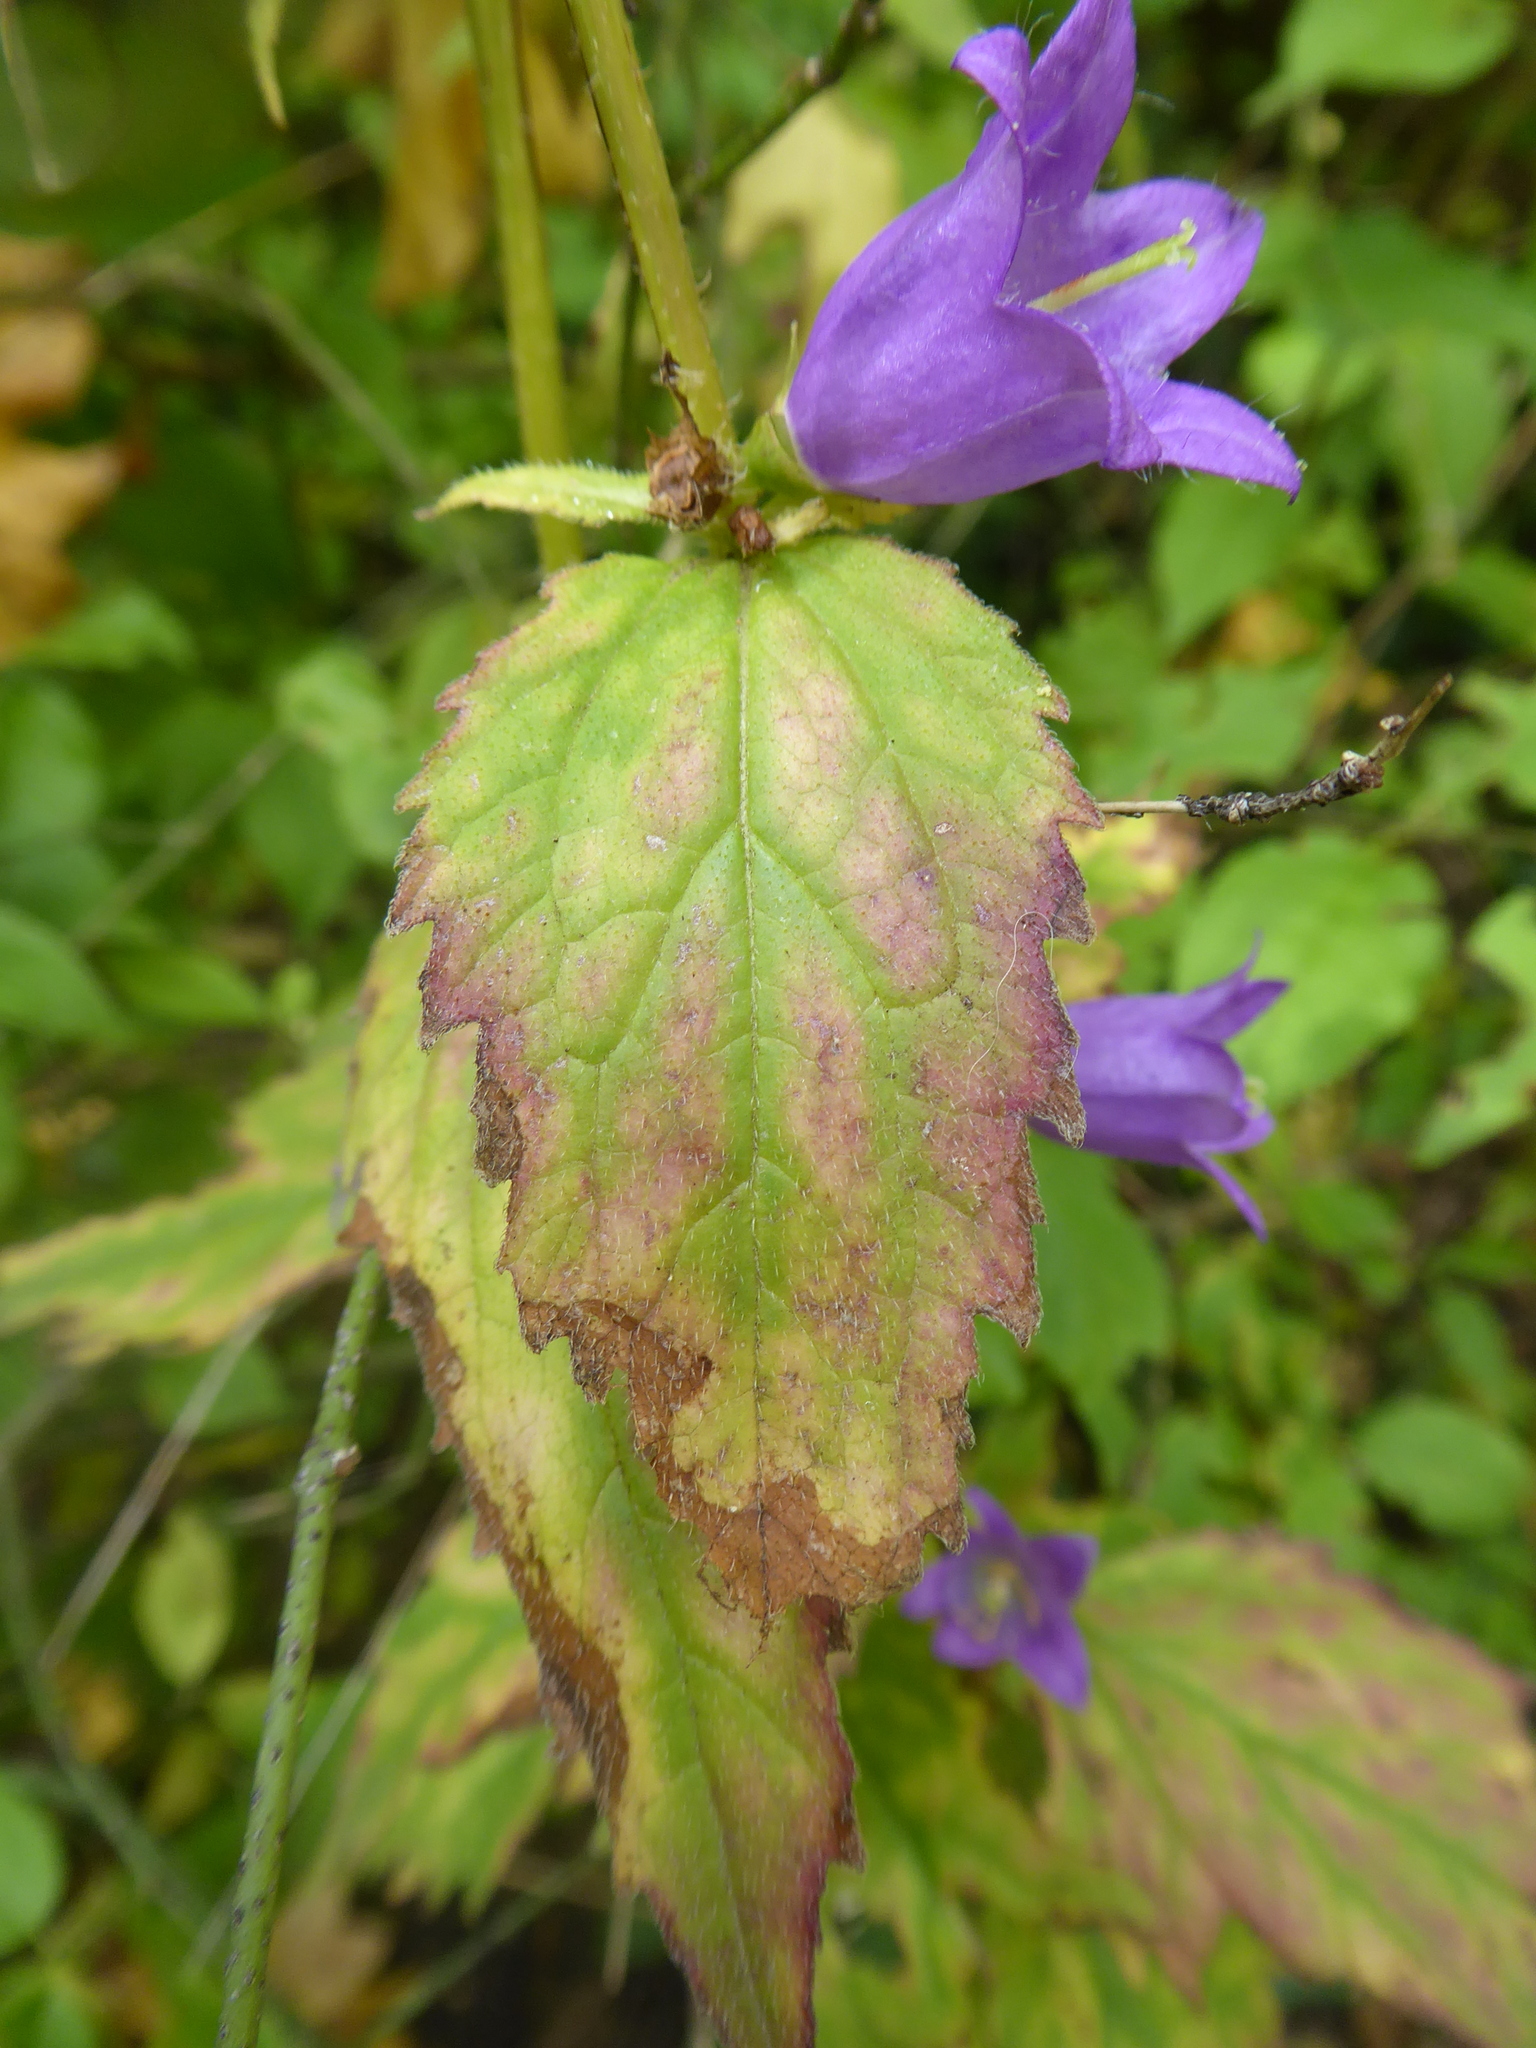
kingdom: Plantae
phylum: Tracheophyta
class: Magnoliopsida
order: Asterales
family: Campanulaceae
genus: Campanula
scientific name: Campanula glomerata
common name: Clustered bellflower
